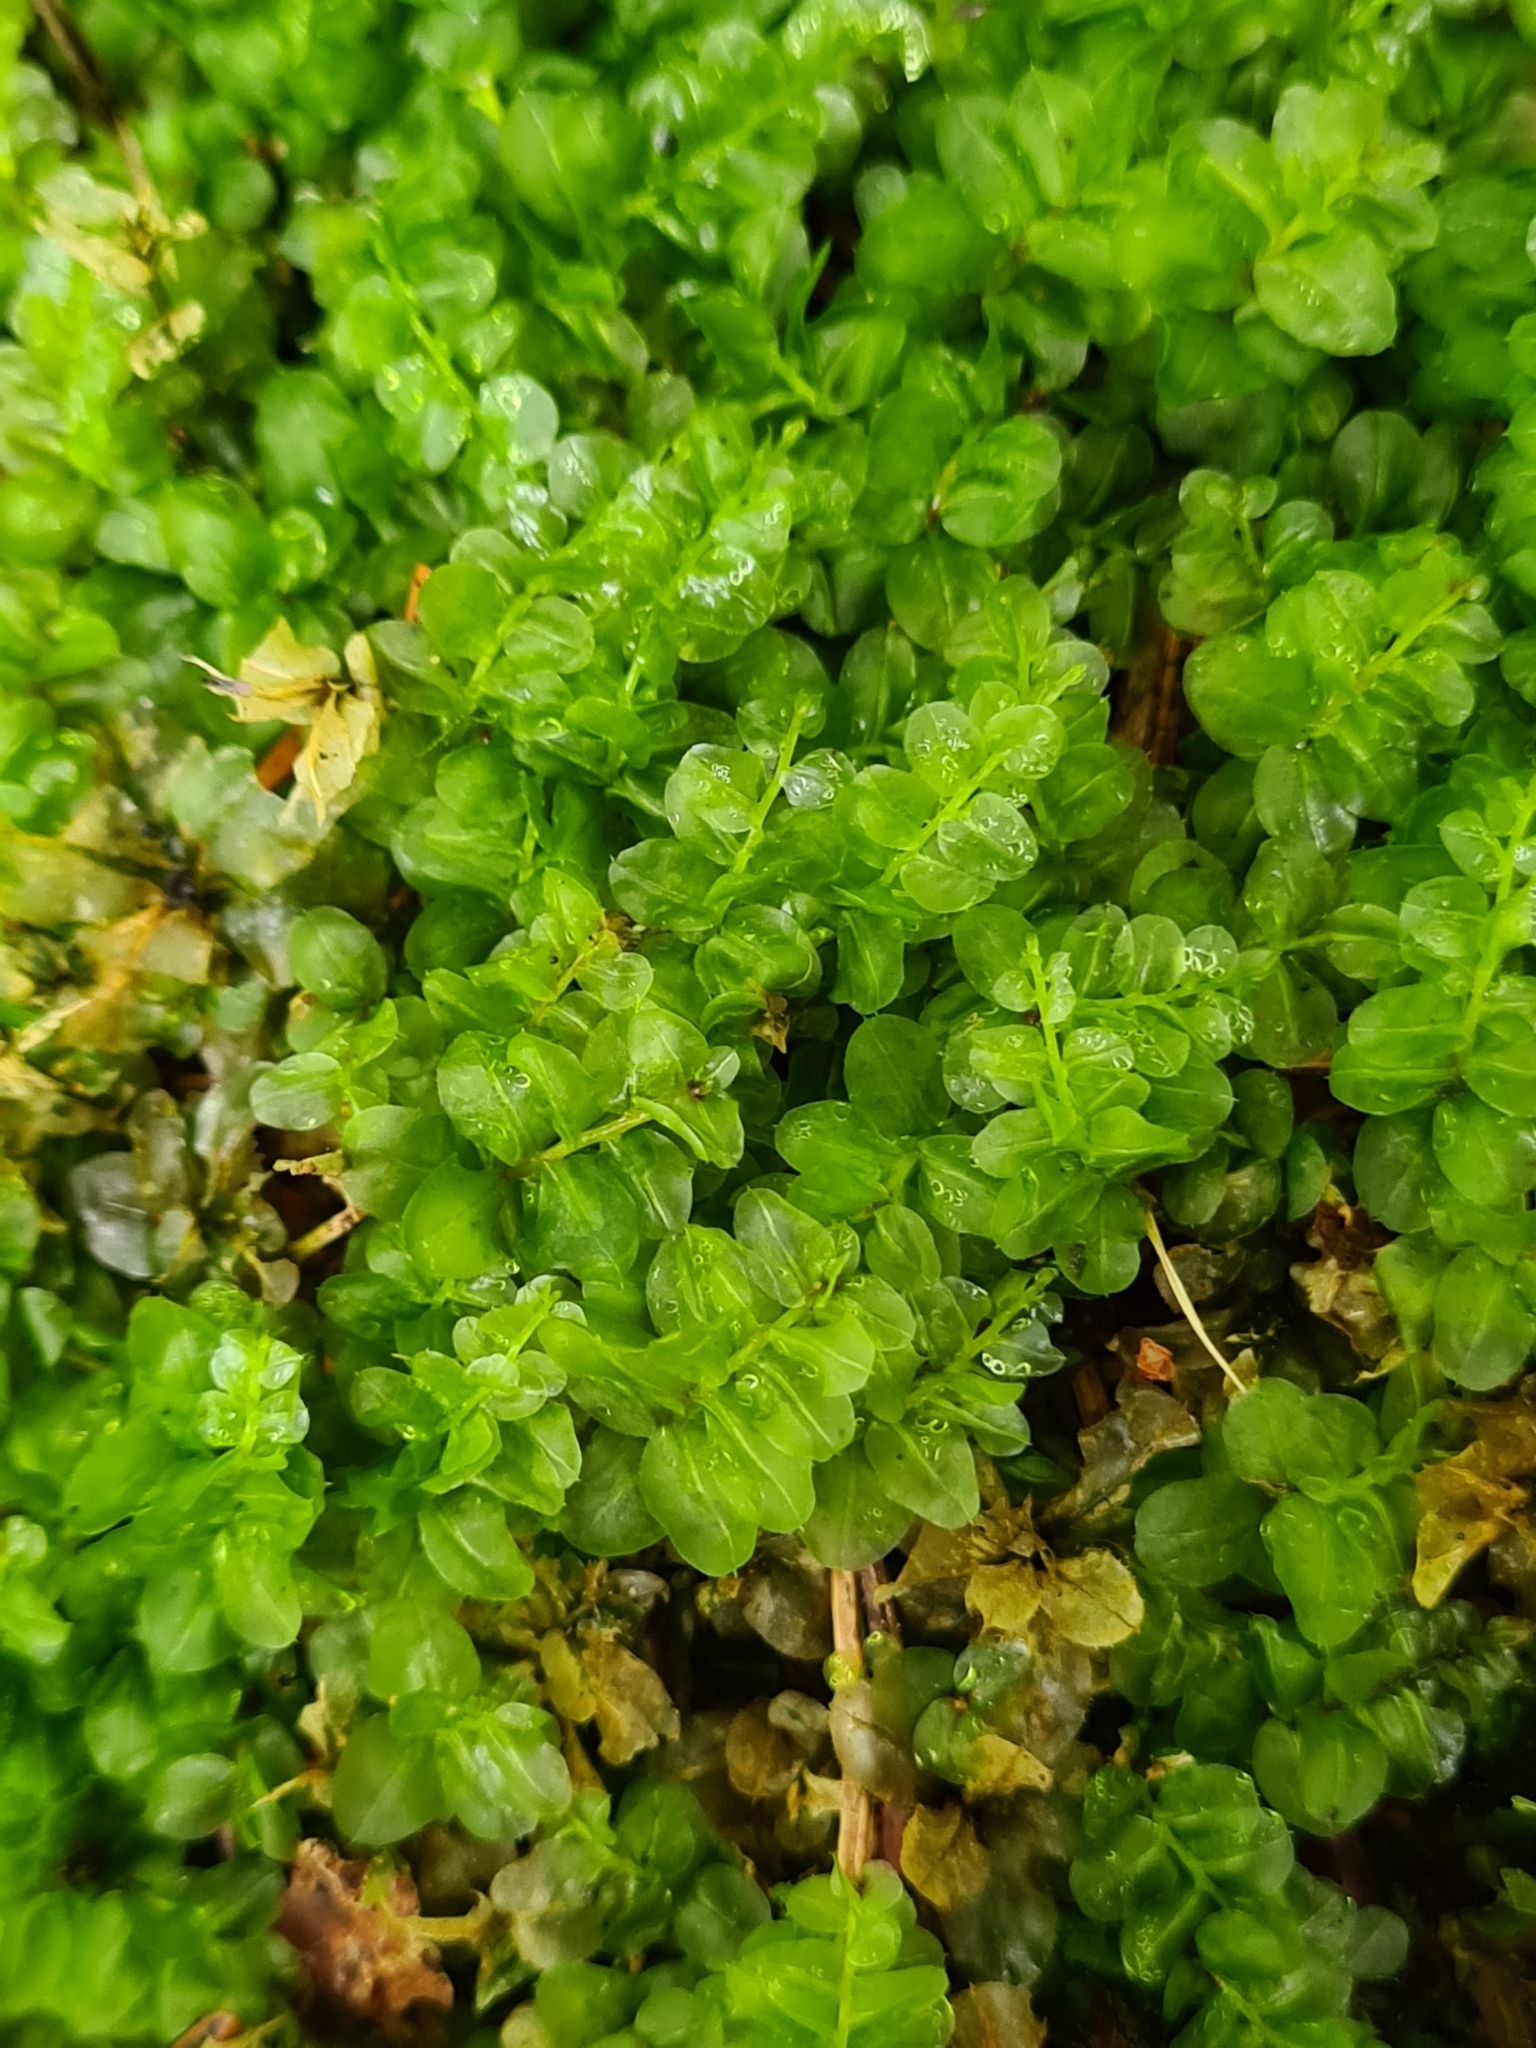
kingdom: Plantae
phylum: Bryophyta
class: Bryopsida
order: Bryales
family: Mniaceae
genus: Plagiomnium
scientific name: Plagiomnium affine
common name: Many-fruited thyme-moss
